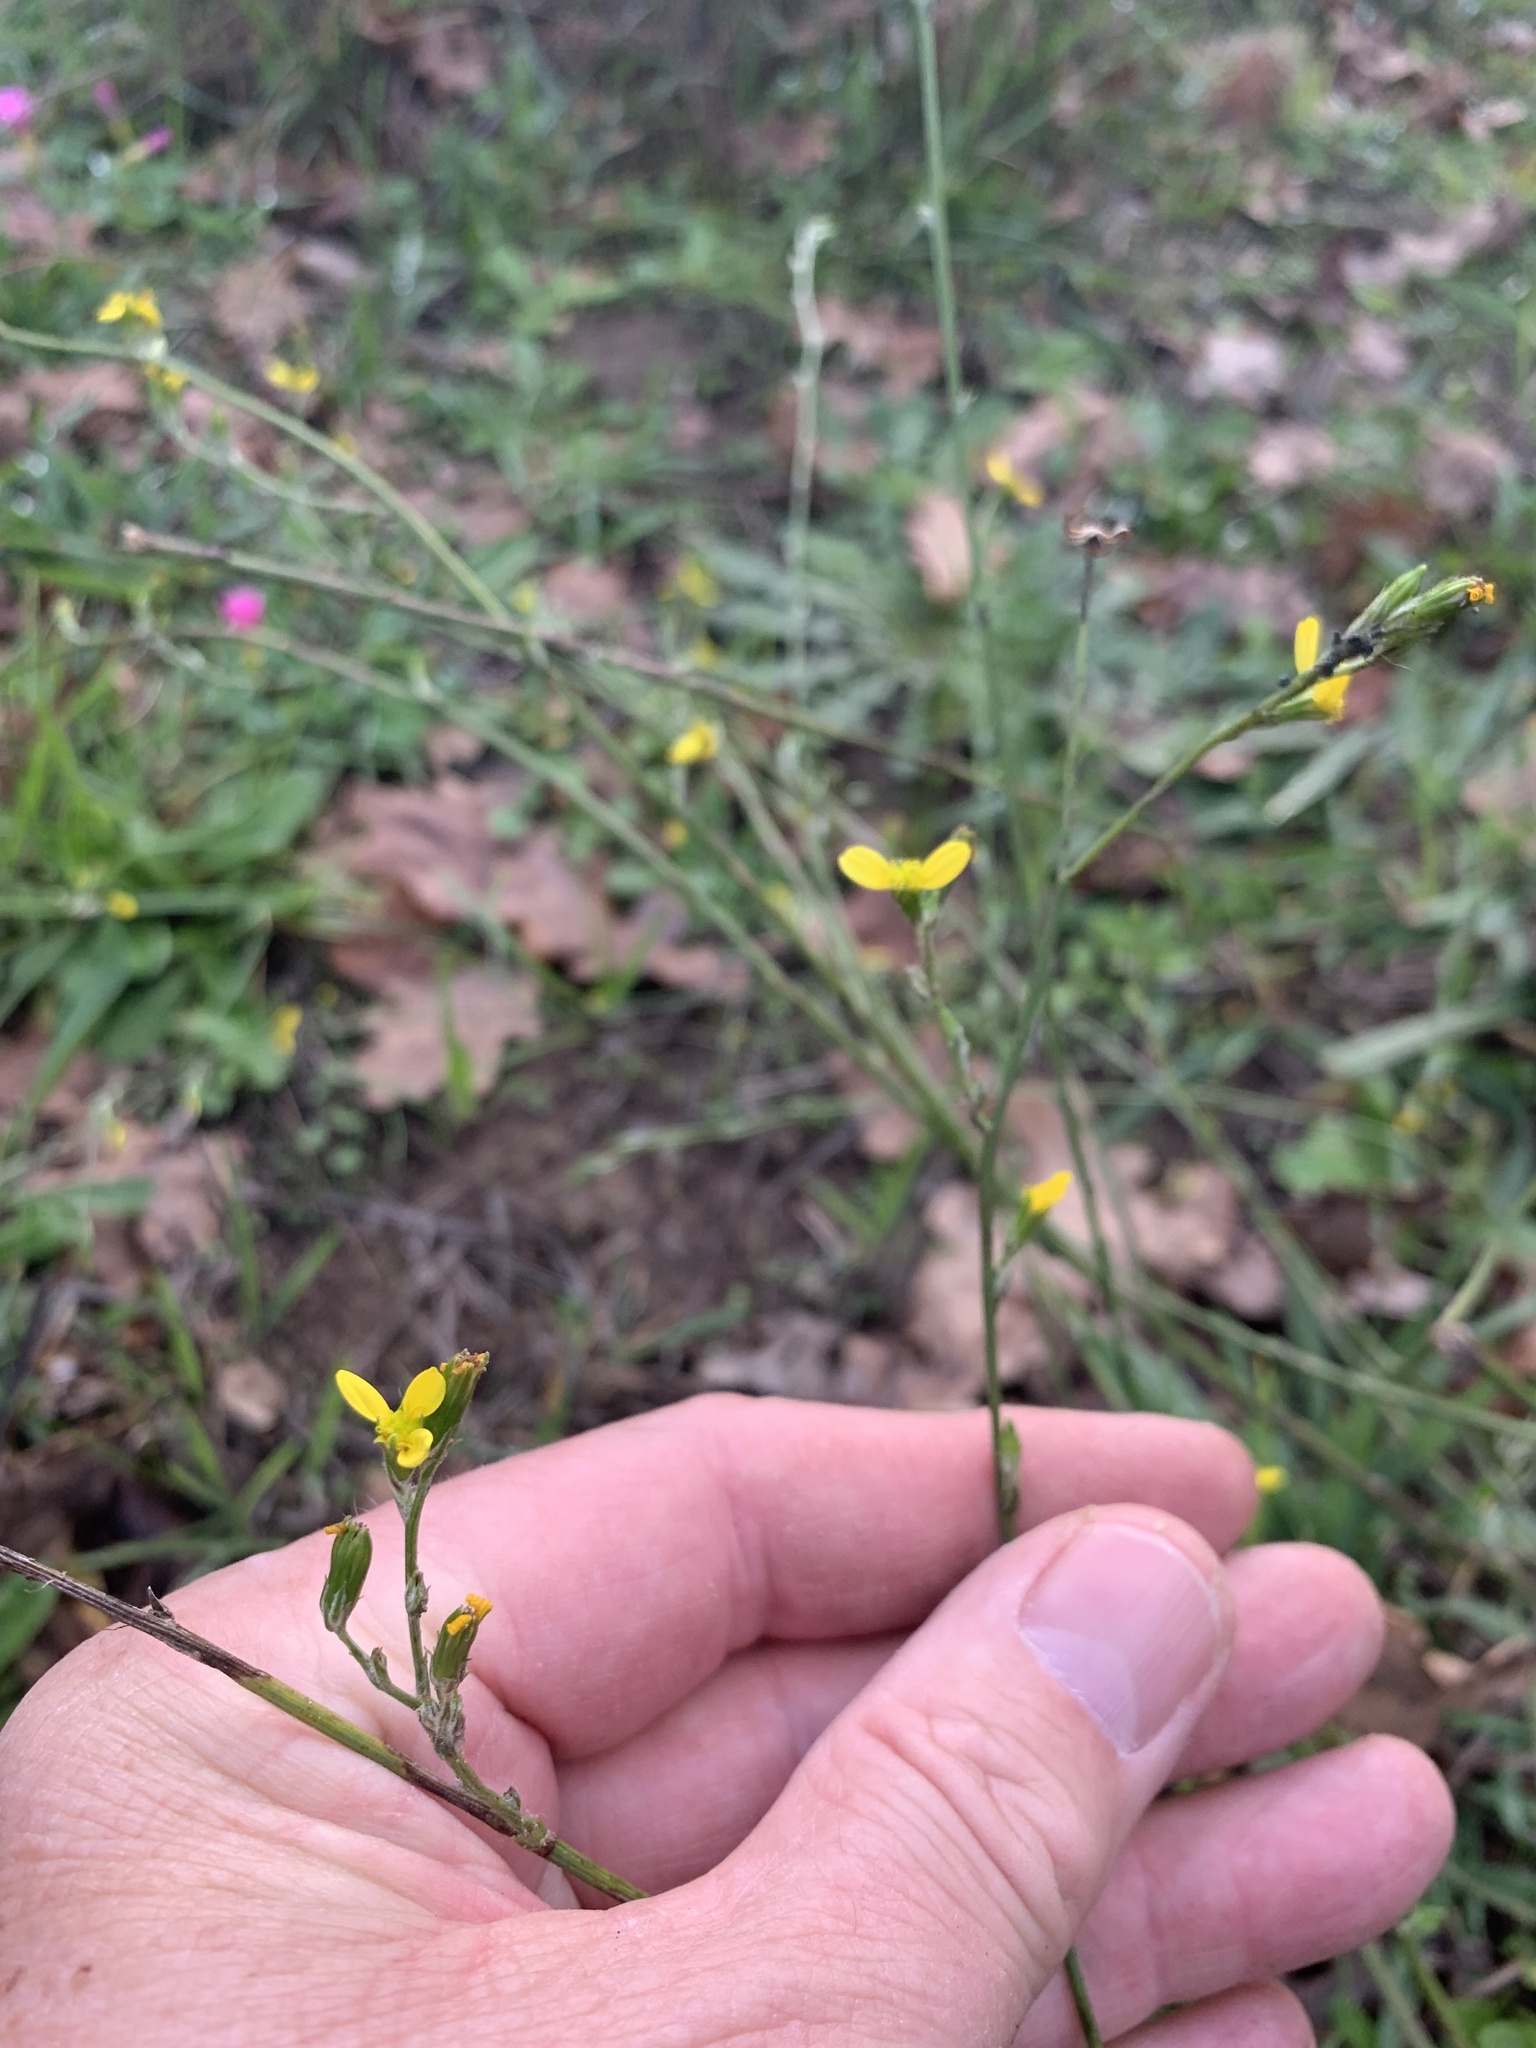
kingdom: Plantae
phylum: Tracheophyta
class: Magnoliopsida
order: Asterales
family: Asteraceae
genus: Senecio
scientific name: Senecio pubigerus
